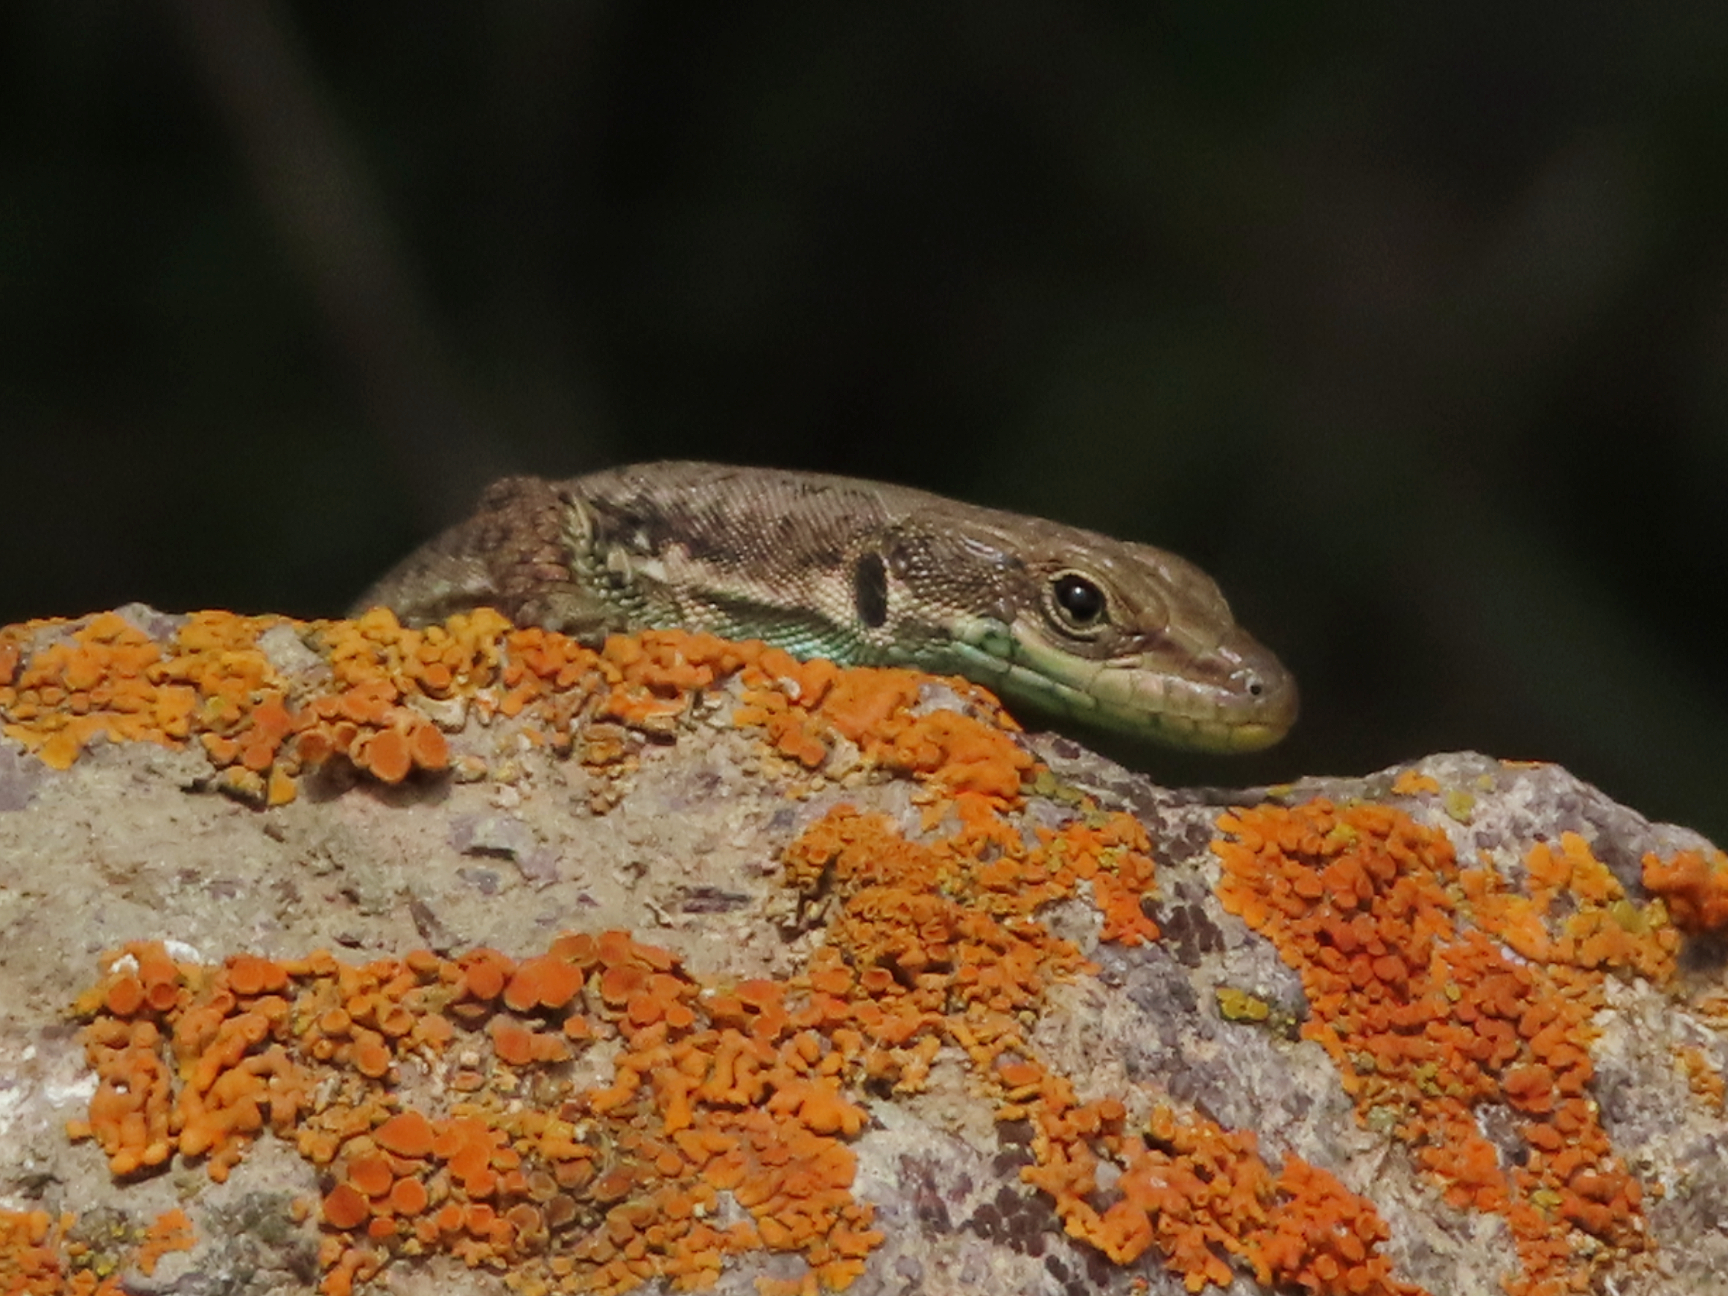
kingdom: Animalia
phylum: Chordata
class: Squamata
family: Lacertidae
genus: Darevskia
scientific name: Darevskia raddei
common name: Radde's lizard
